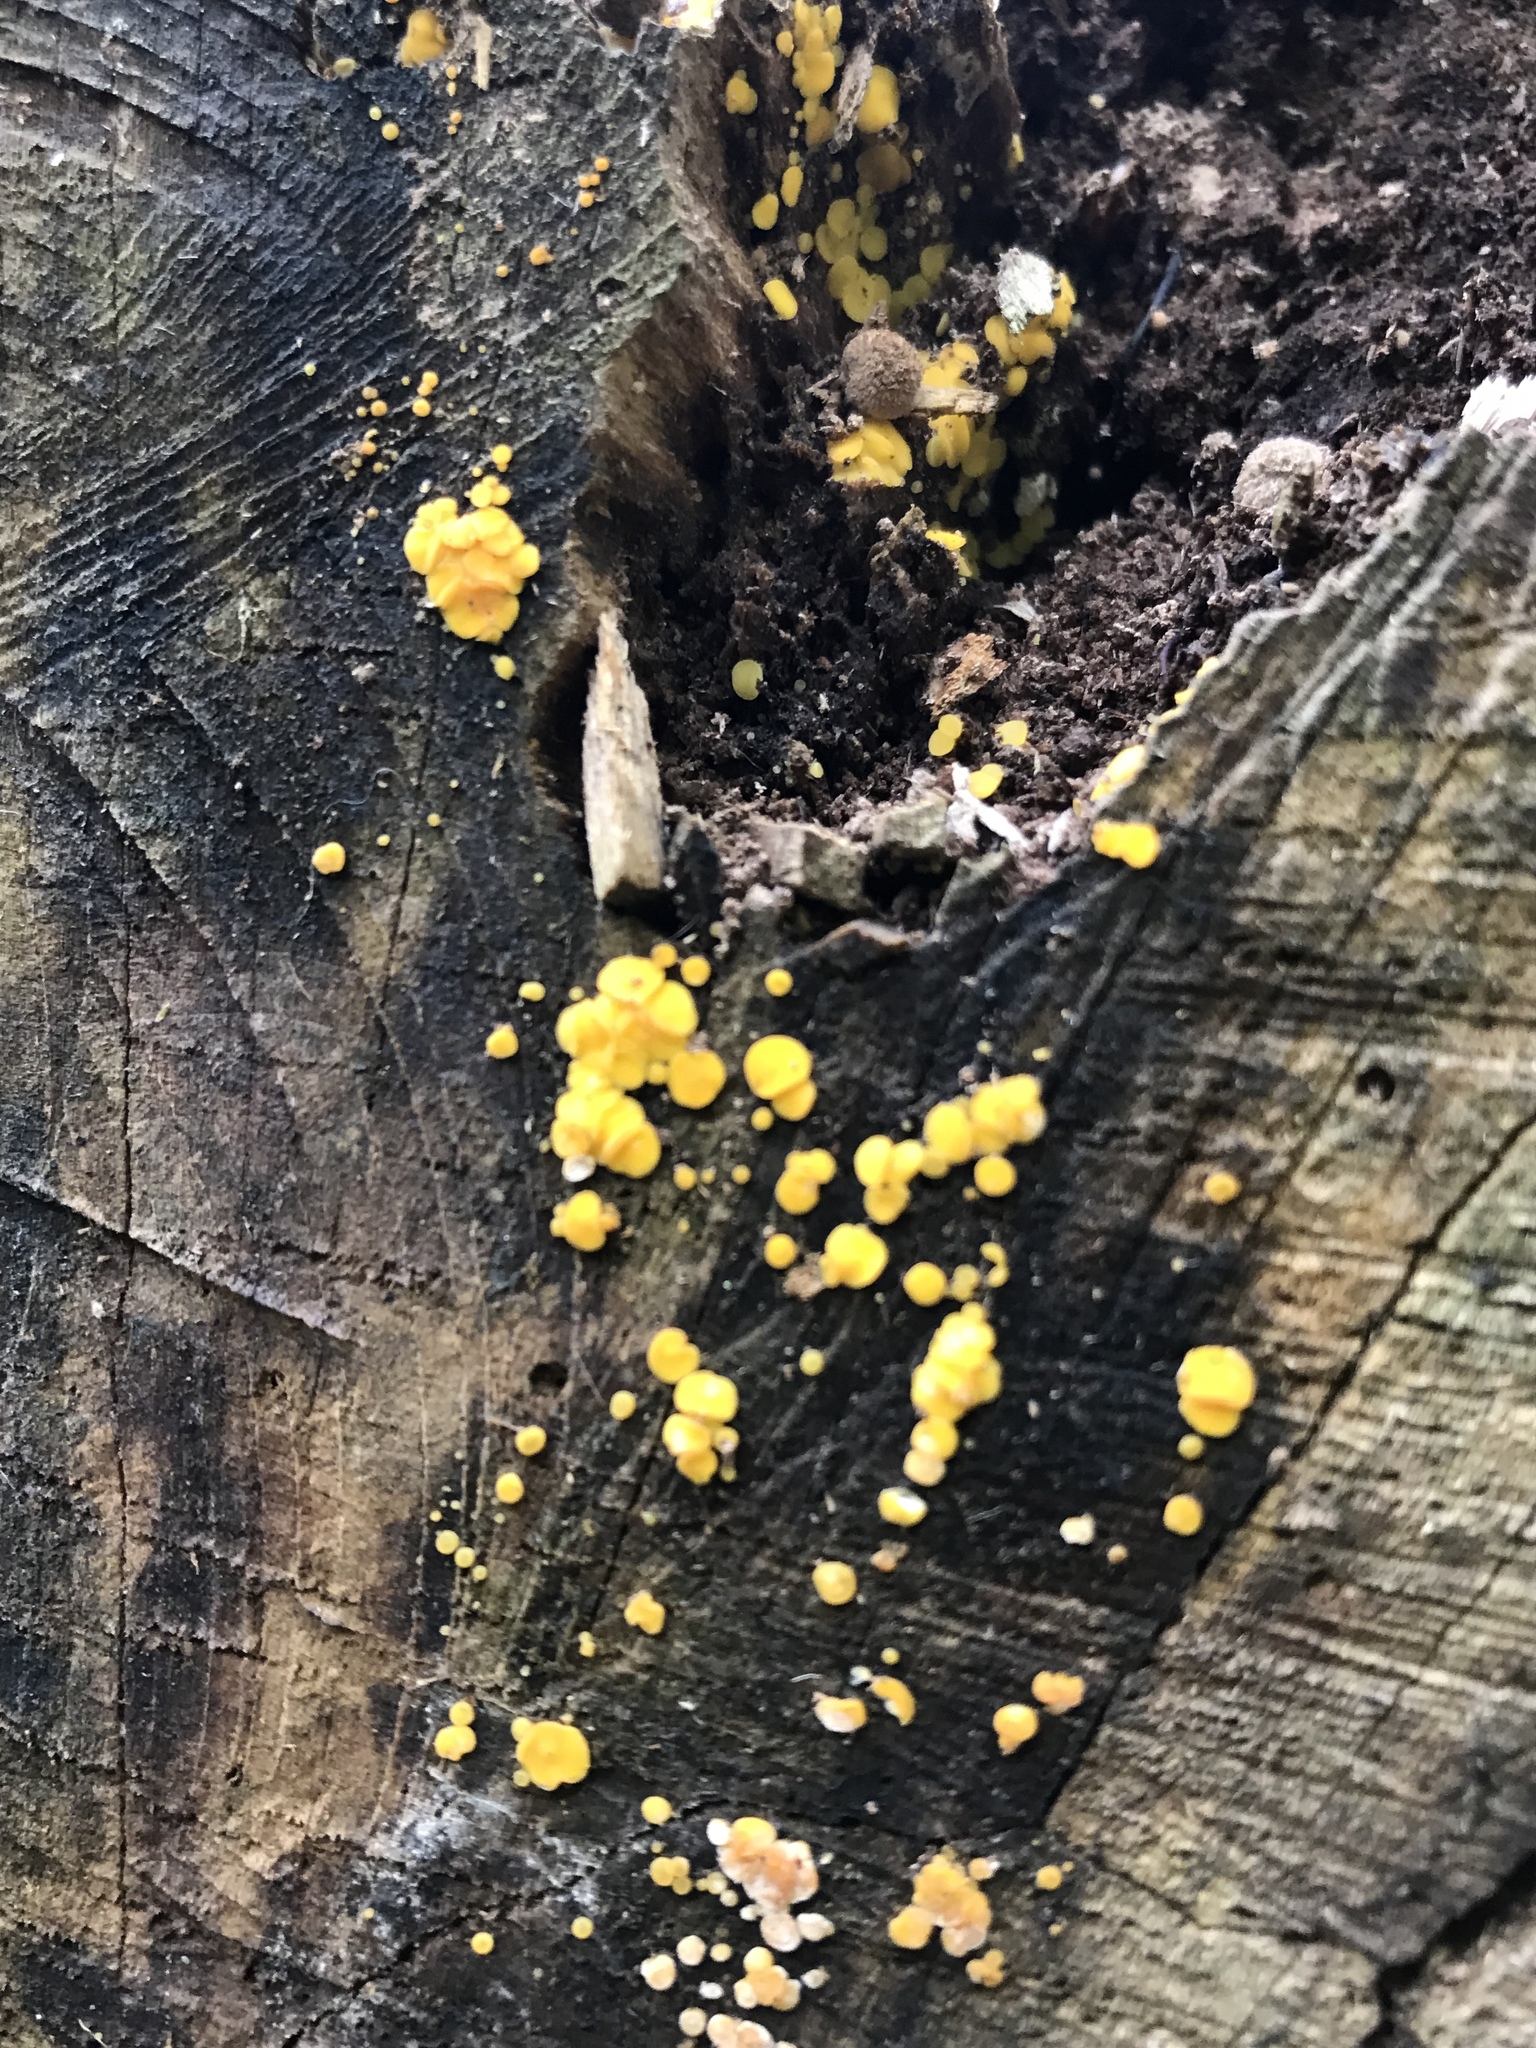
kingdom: Fungi
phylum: Ascomycota
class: Leotiomycetes
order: Helotiales
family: Pezizellaceae
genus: Calycina
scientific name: Calycina citrina
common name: Yellow fairy cups
